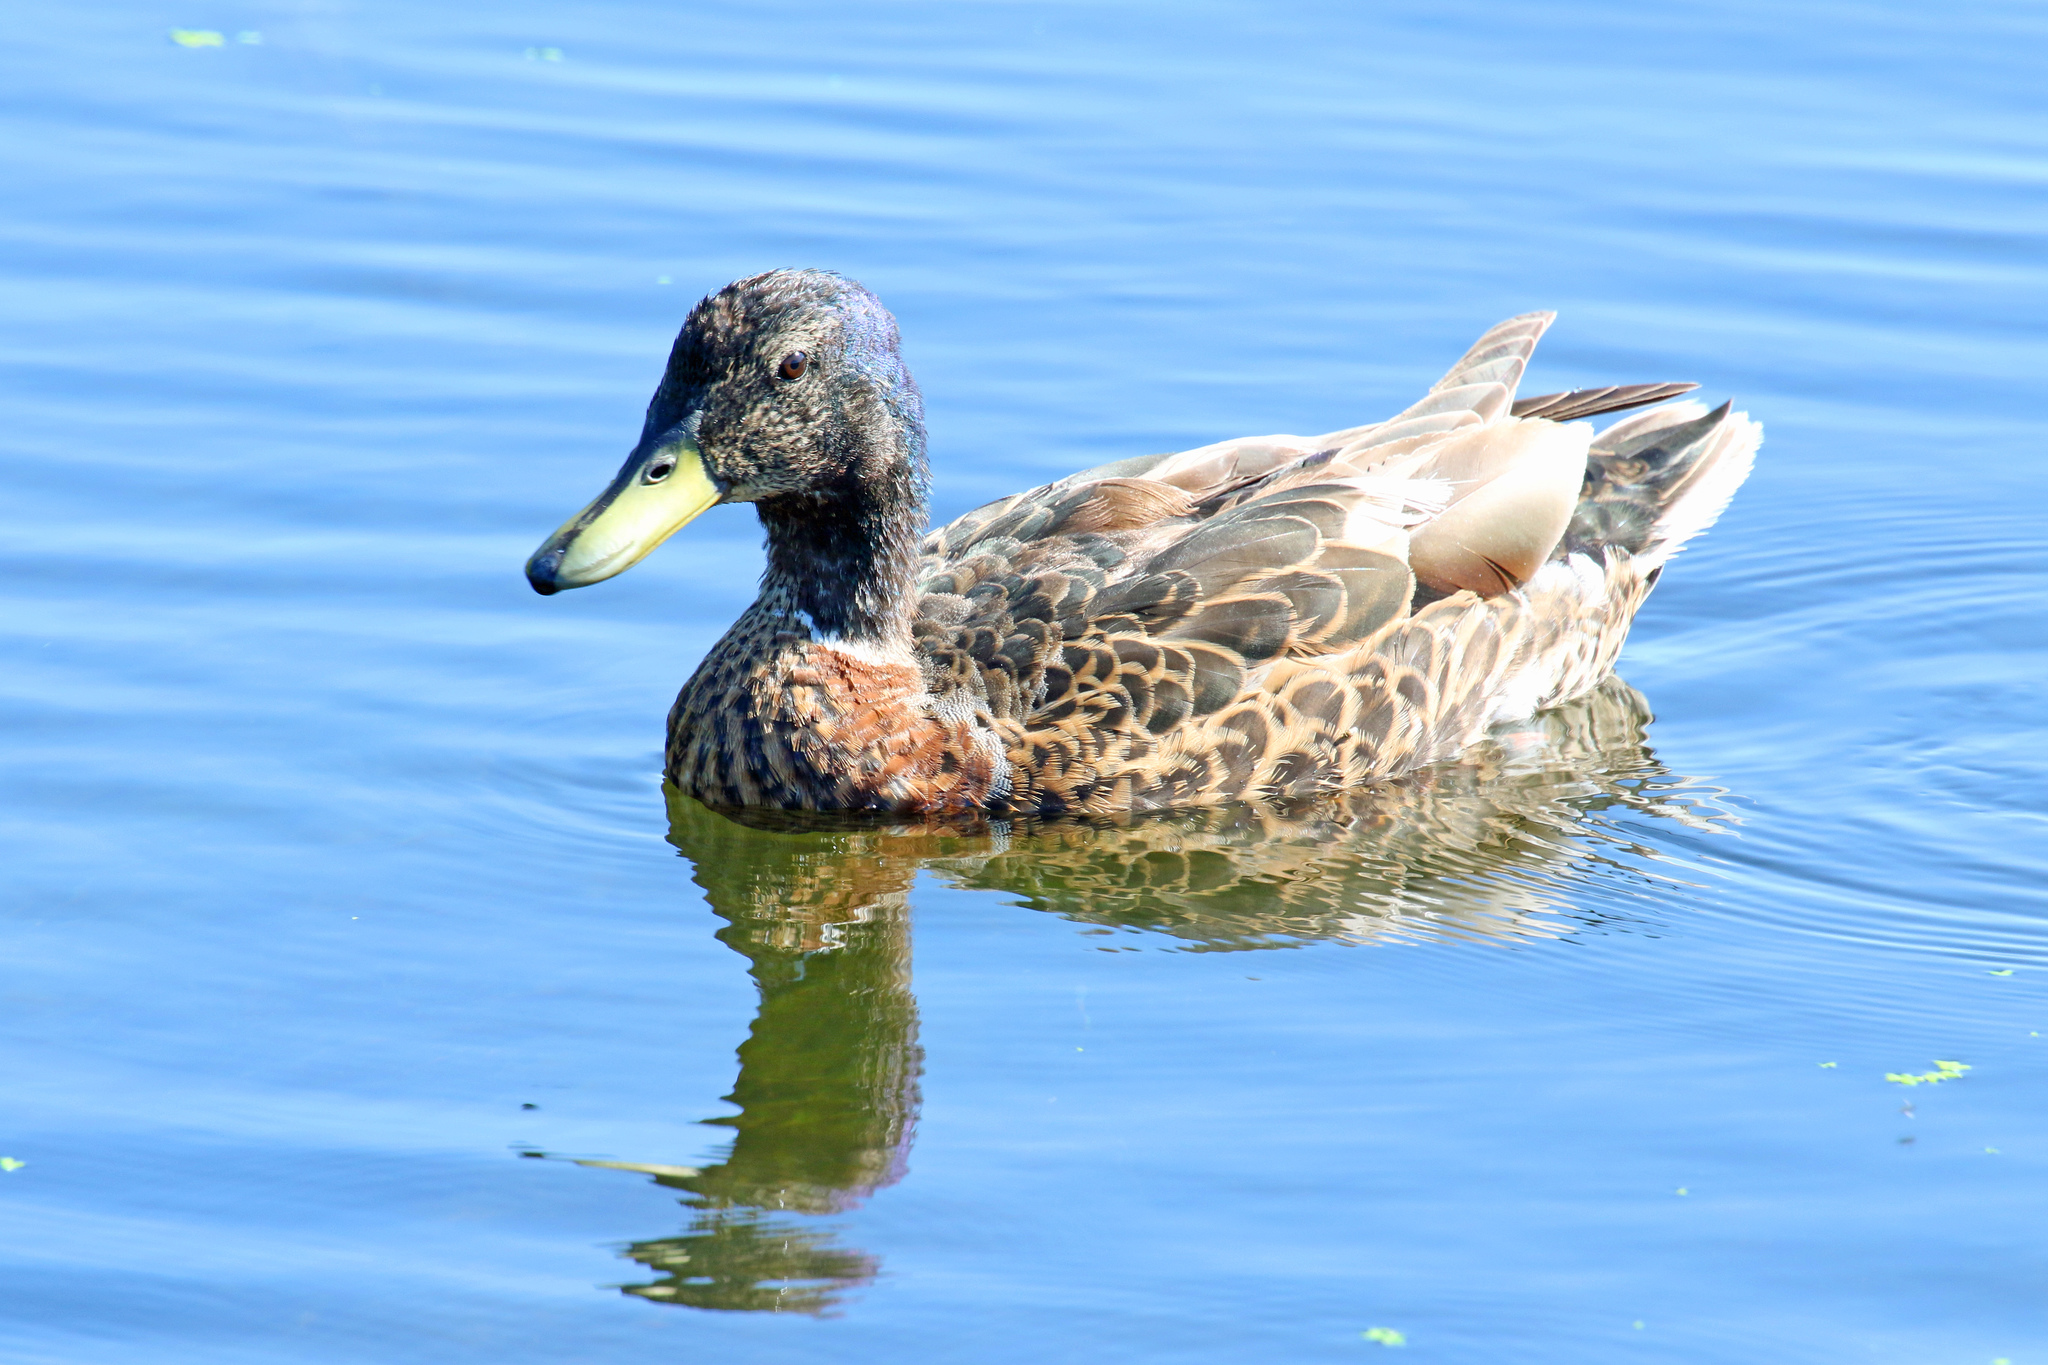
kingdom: Animalia
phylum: Chordata
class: Aves
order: Anseriformes
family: Anatidae
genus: Anas
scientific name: Anas platyrhynchos
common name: Mallard
